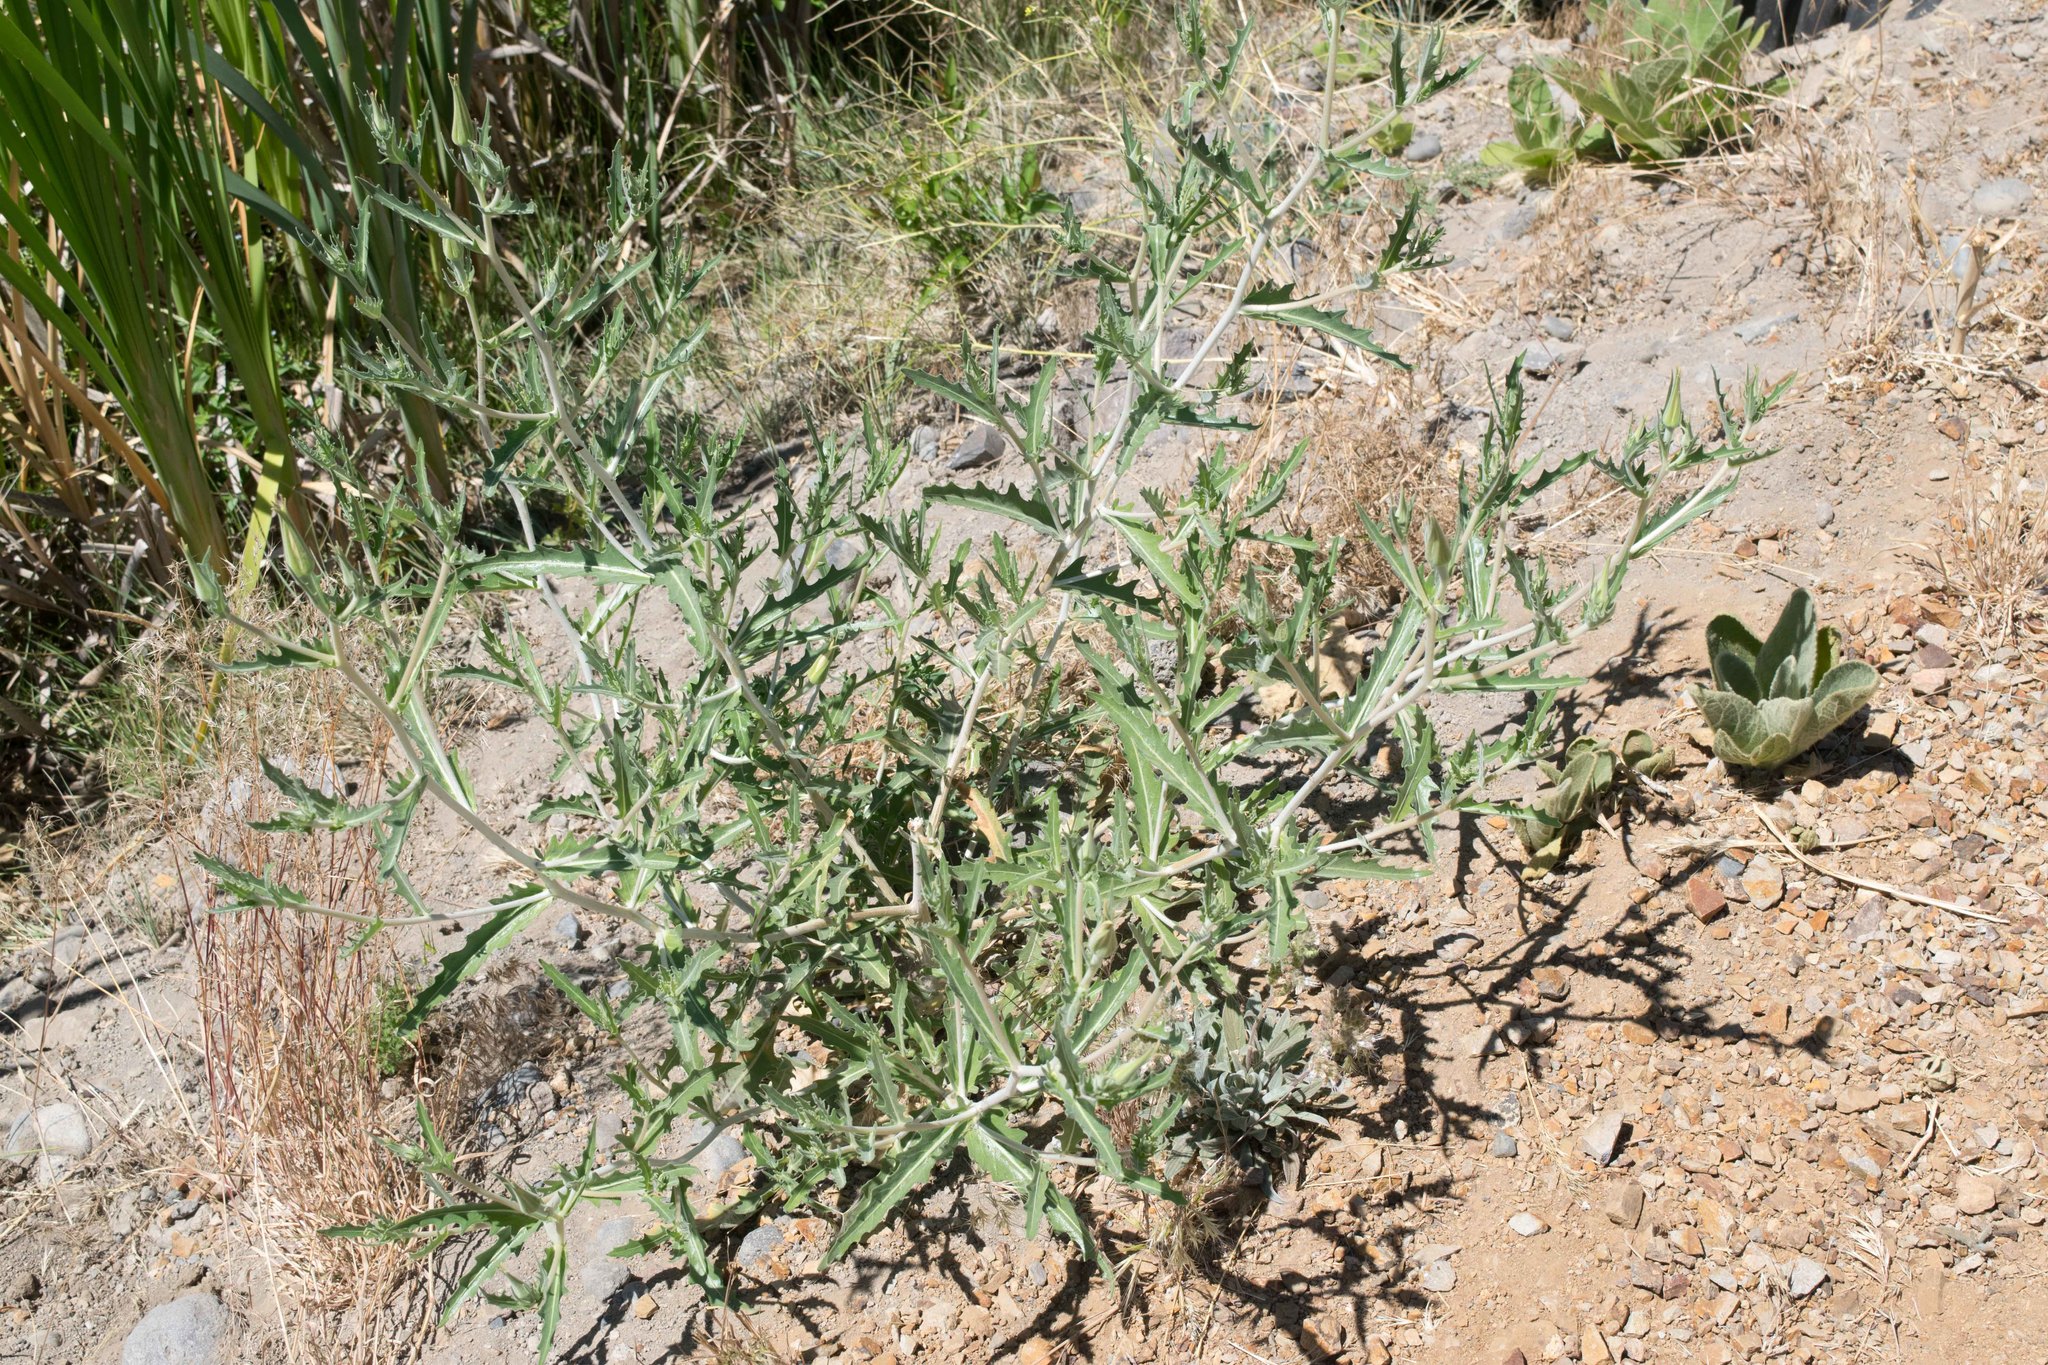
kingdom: Plantae
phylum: Tracheophyta
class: Magnoliopsida
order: Cornales
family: Loasaceae
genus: Mentzelia
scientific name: Mentzelia laevicaulis
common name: Smooth-stem blazingstar
